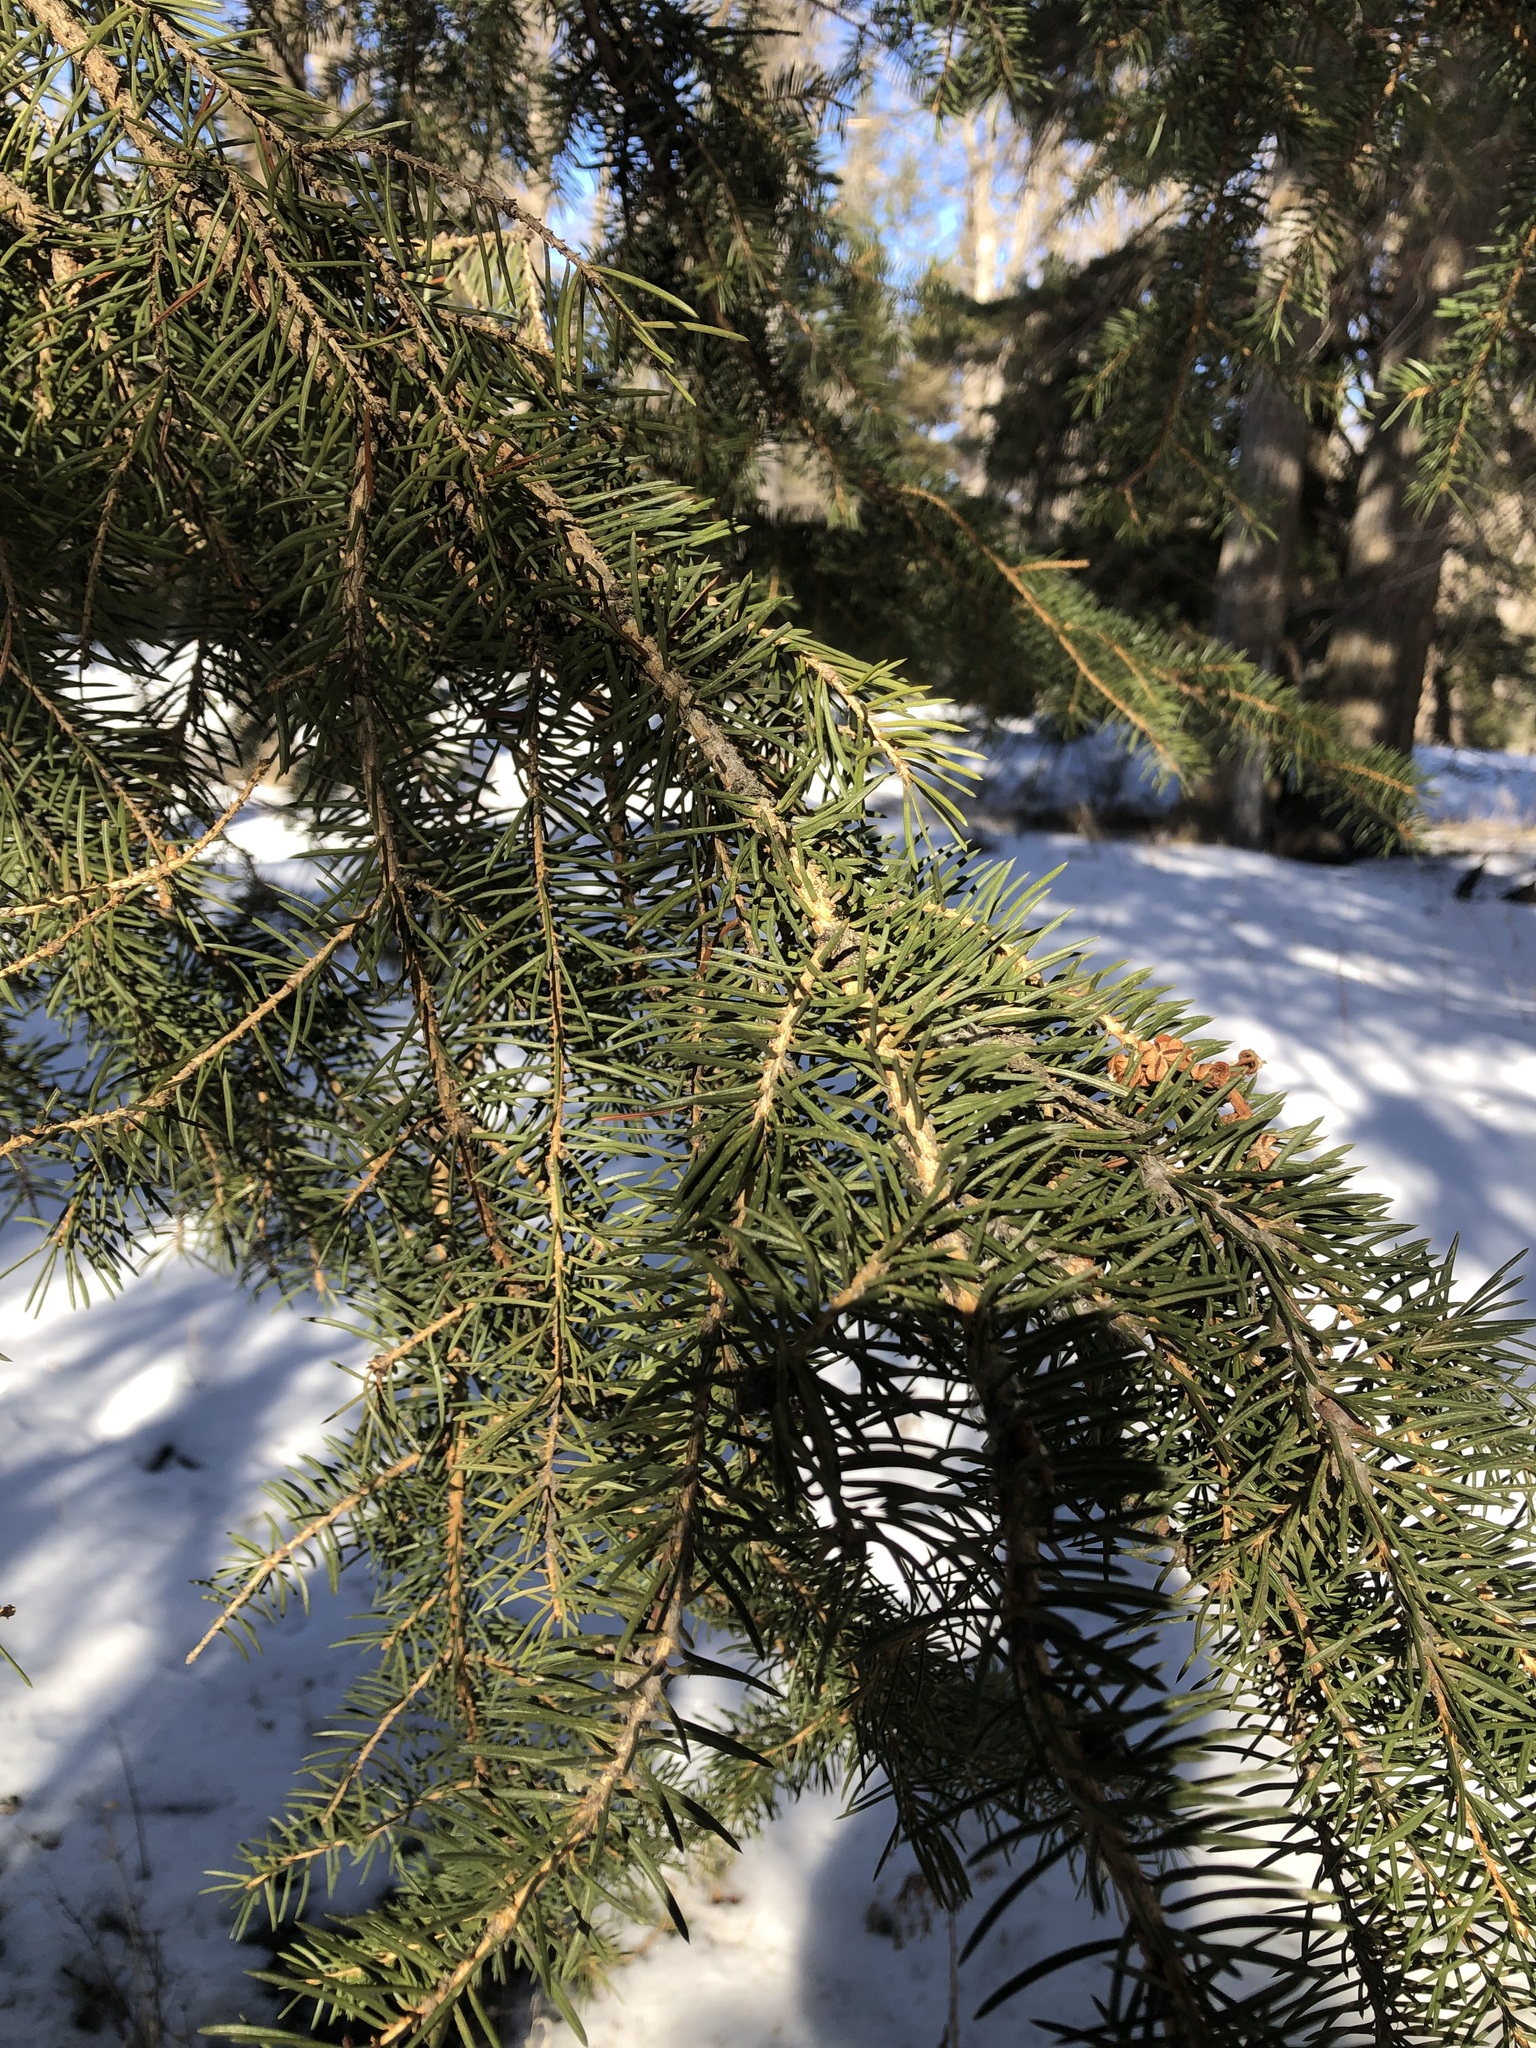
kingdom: Plantae
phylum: Tracheophyta
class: Pinopsida
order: Pinales
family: Pinaceae
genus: Picea
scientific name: Picea engelmannii
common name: Engelmann spruce
